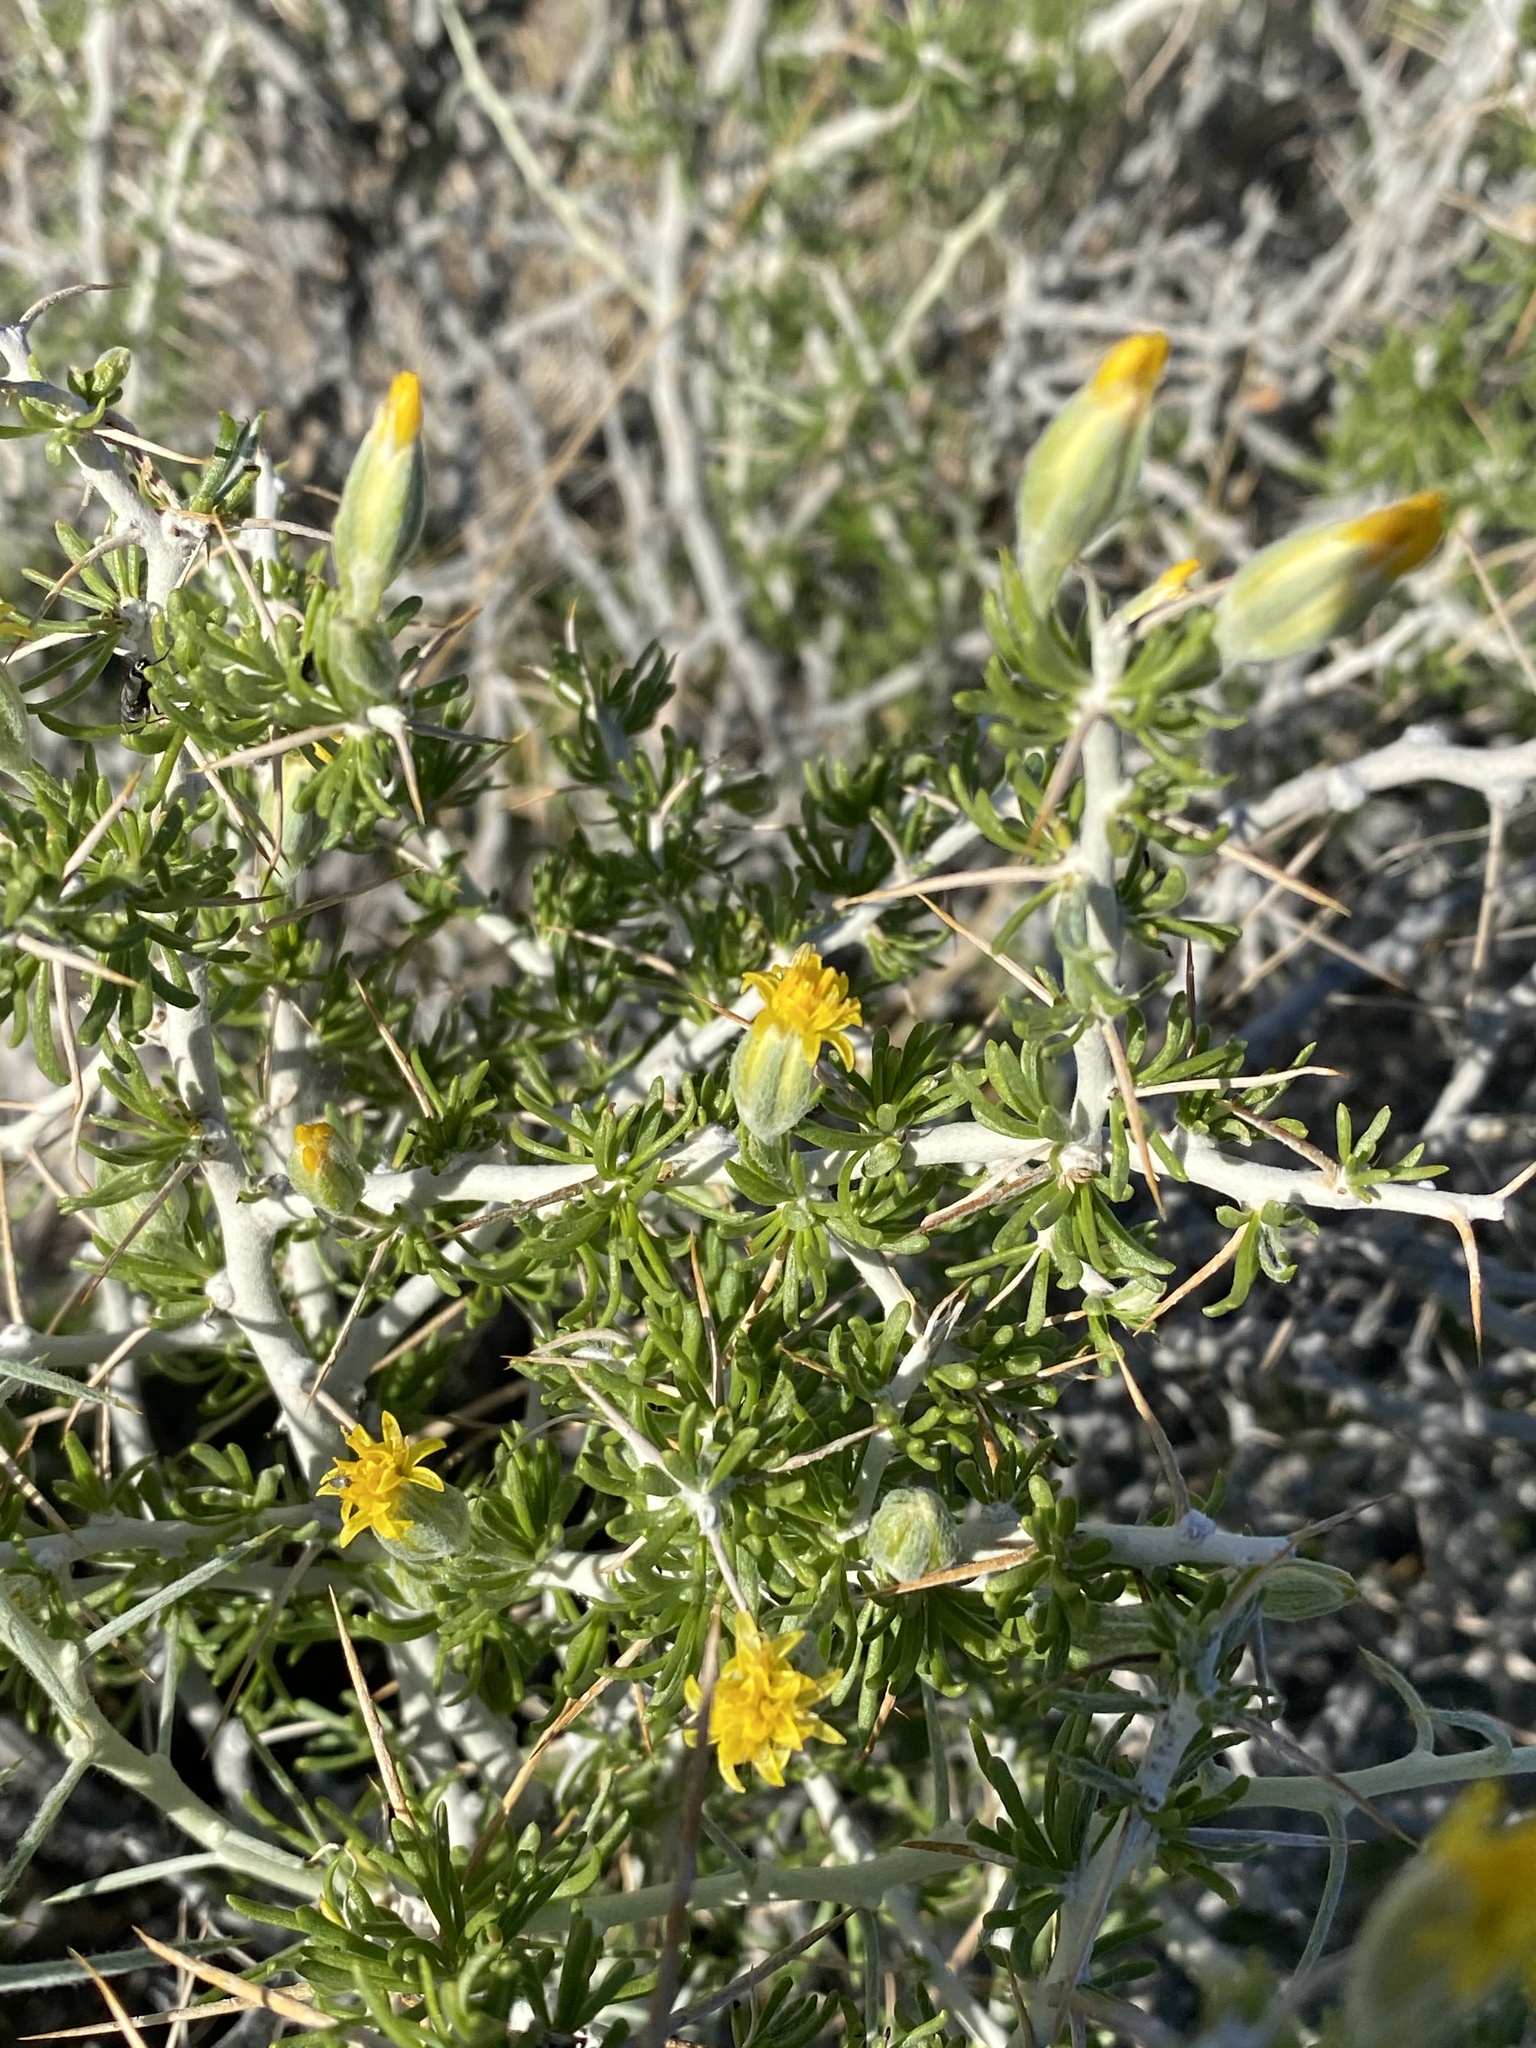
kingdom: Plantae
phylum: Tracheophyta
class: Magnoliopsida
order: Asterales
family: Asteraceae
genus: Tetradymia
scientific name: Tetradymia spinosa
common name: Thorny horsebrush
